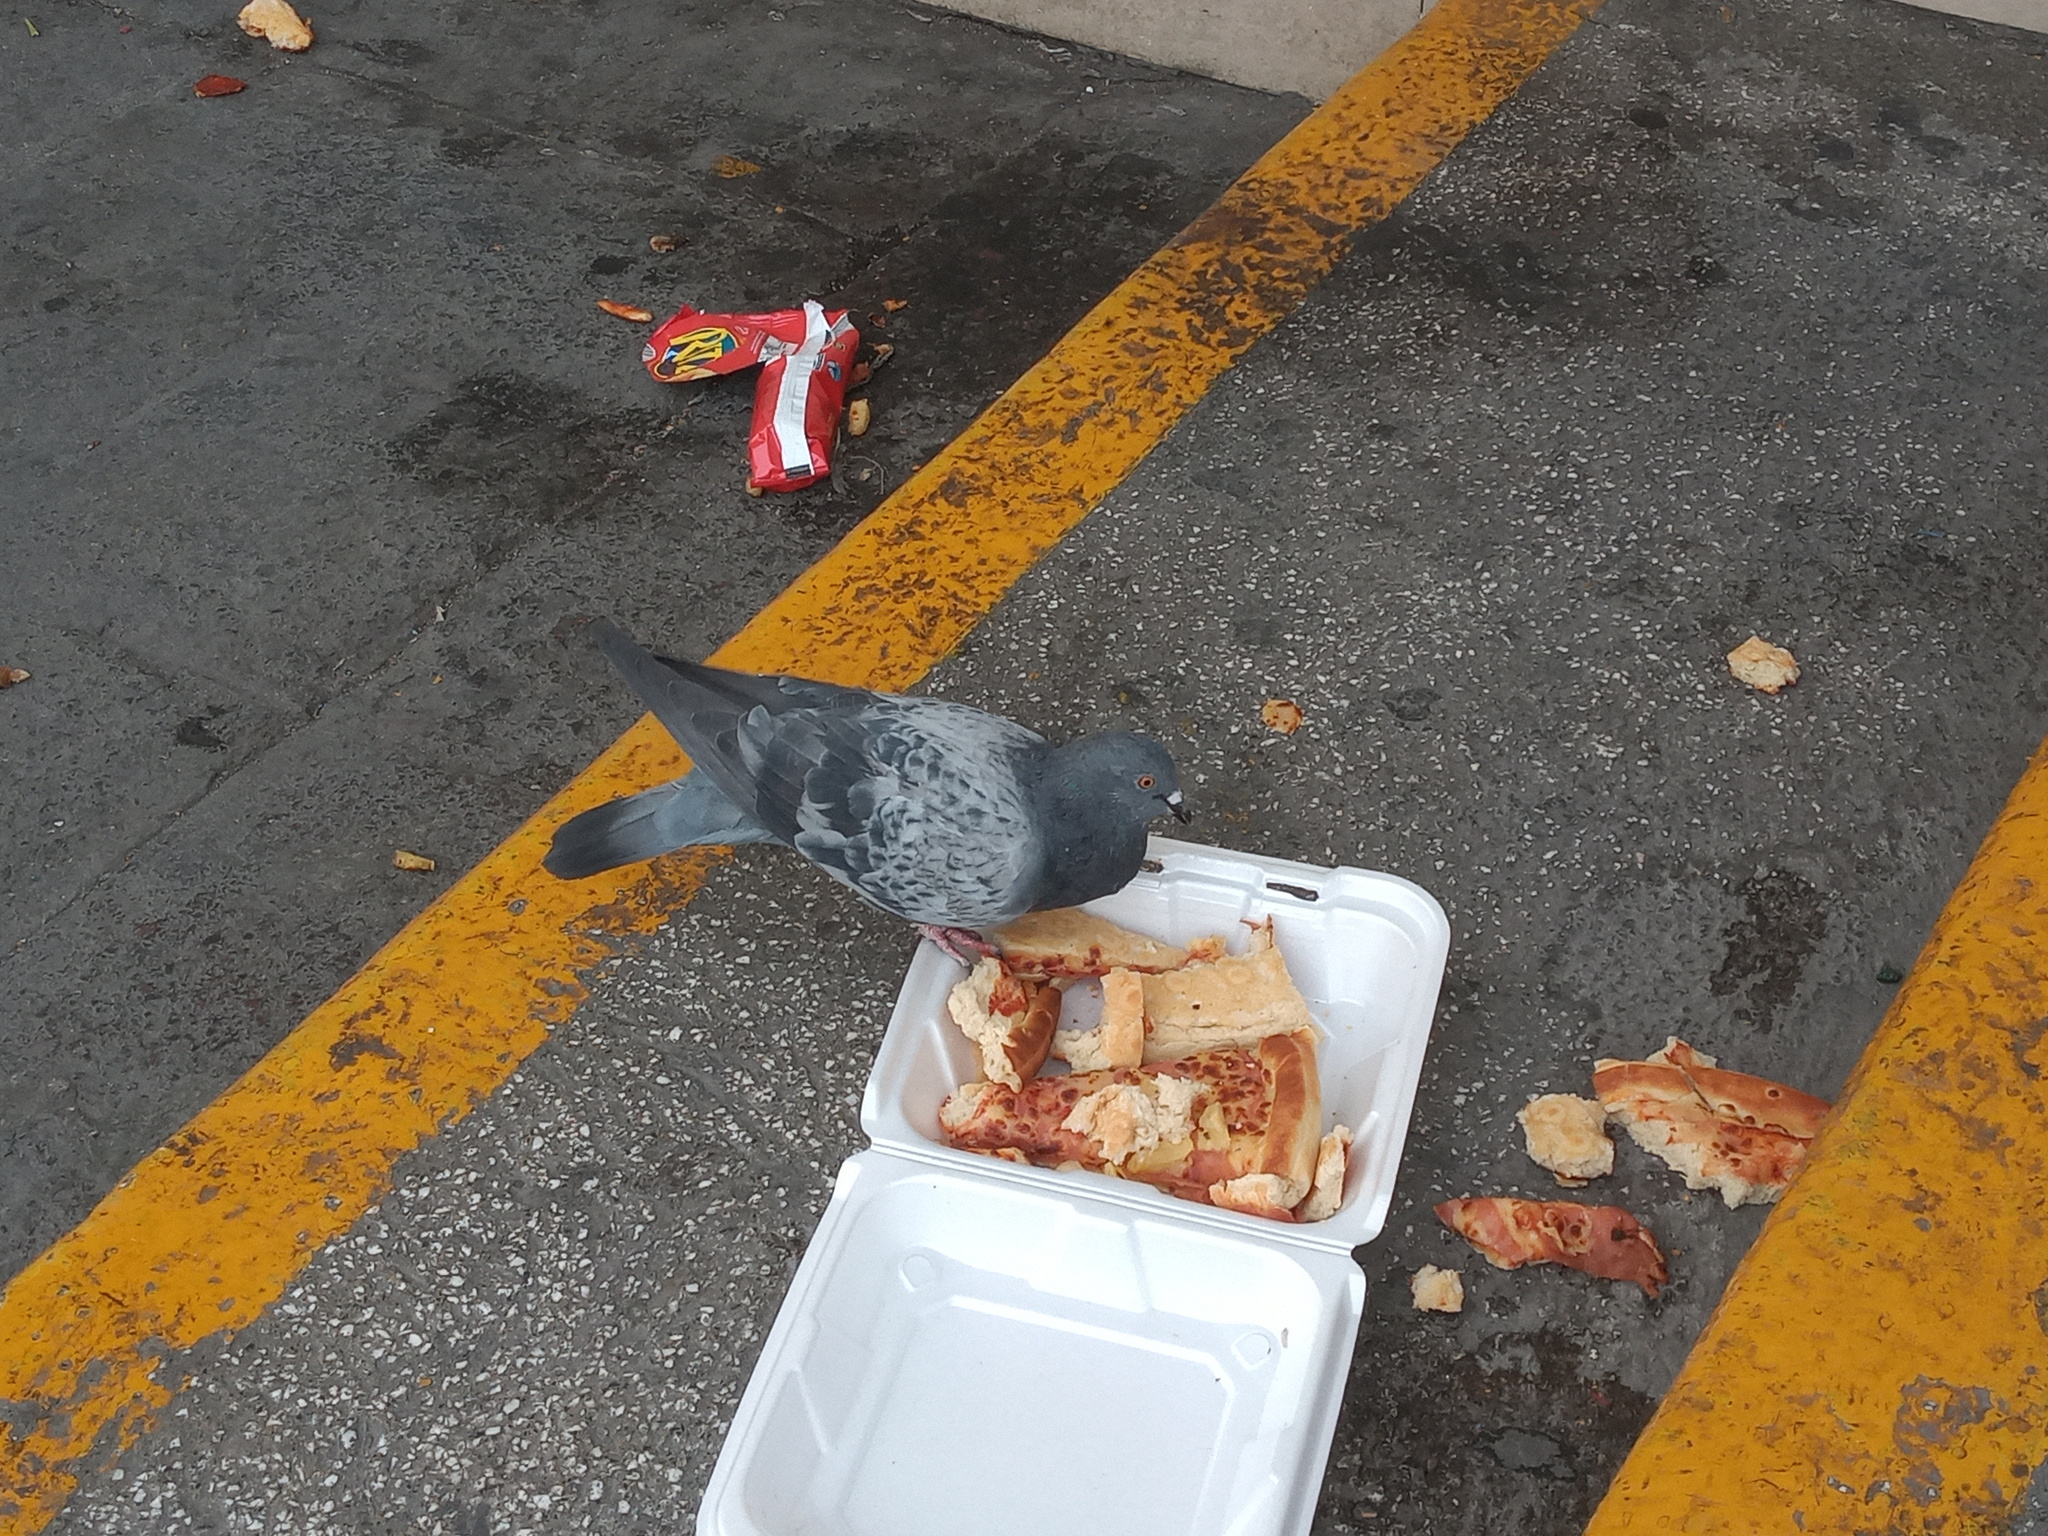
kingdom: Animalia
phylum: Chordata
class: Aves
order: Columbiformes
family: Columbidae
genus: Columba
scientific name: Columba livia
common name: Rock pigeon
